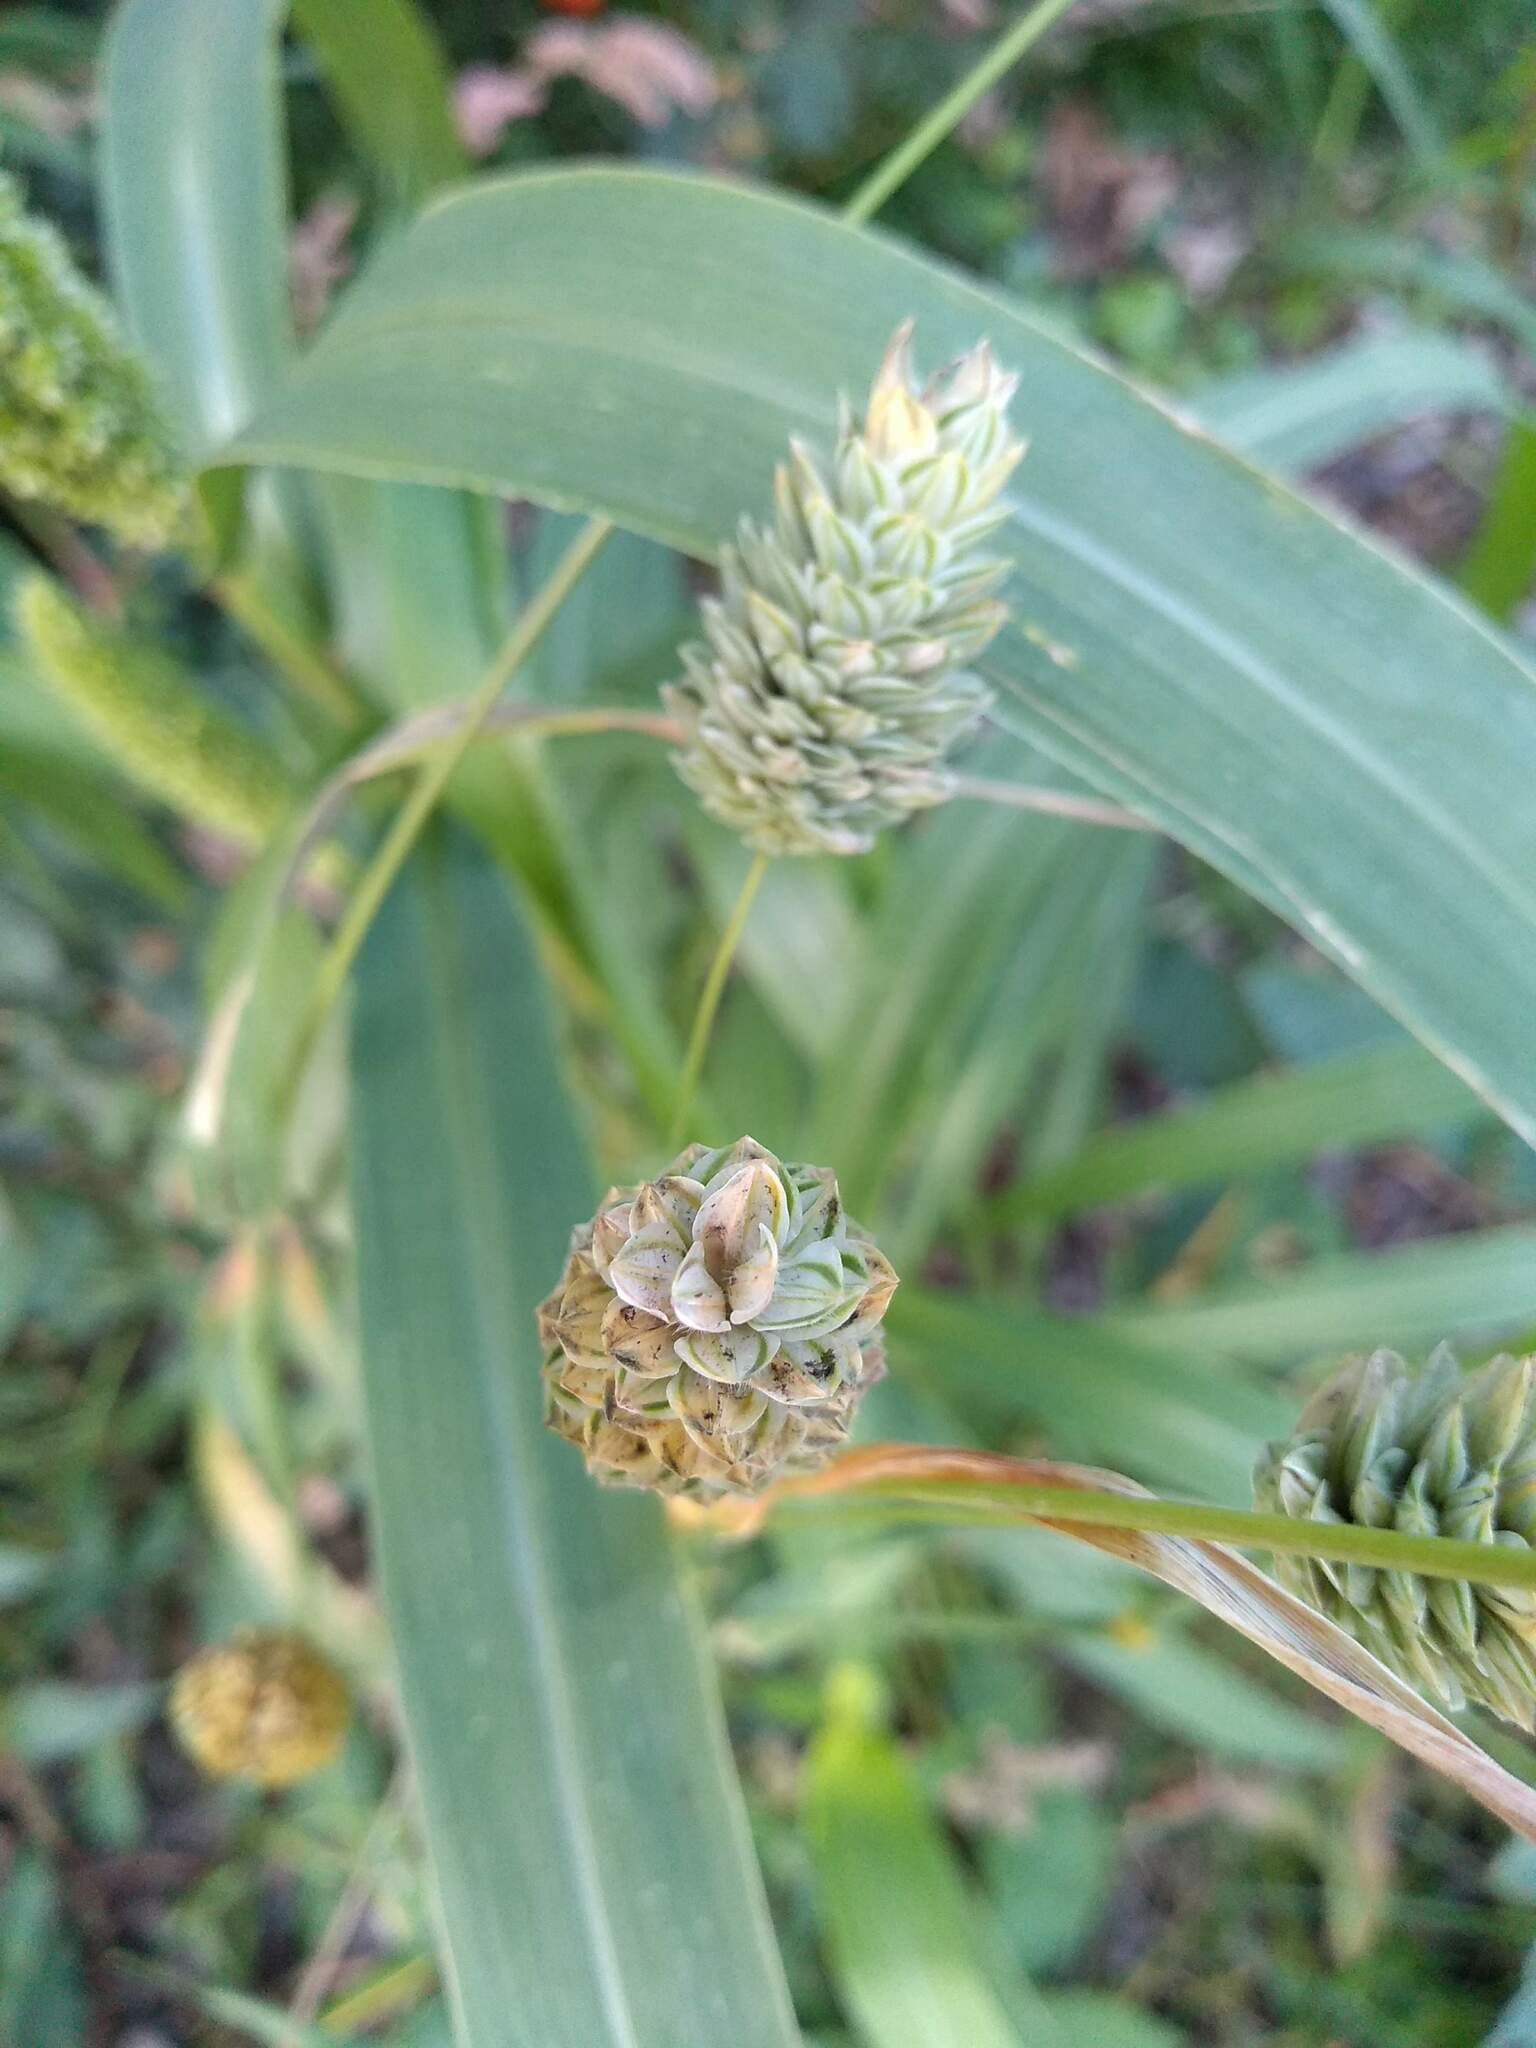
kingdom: Plantae
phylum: Tracheophyta
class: Liliopsida
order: Poales
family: Poaceae
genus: Phalaris
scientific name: Phalaris canariensis
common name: Annual canarygrass
